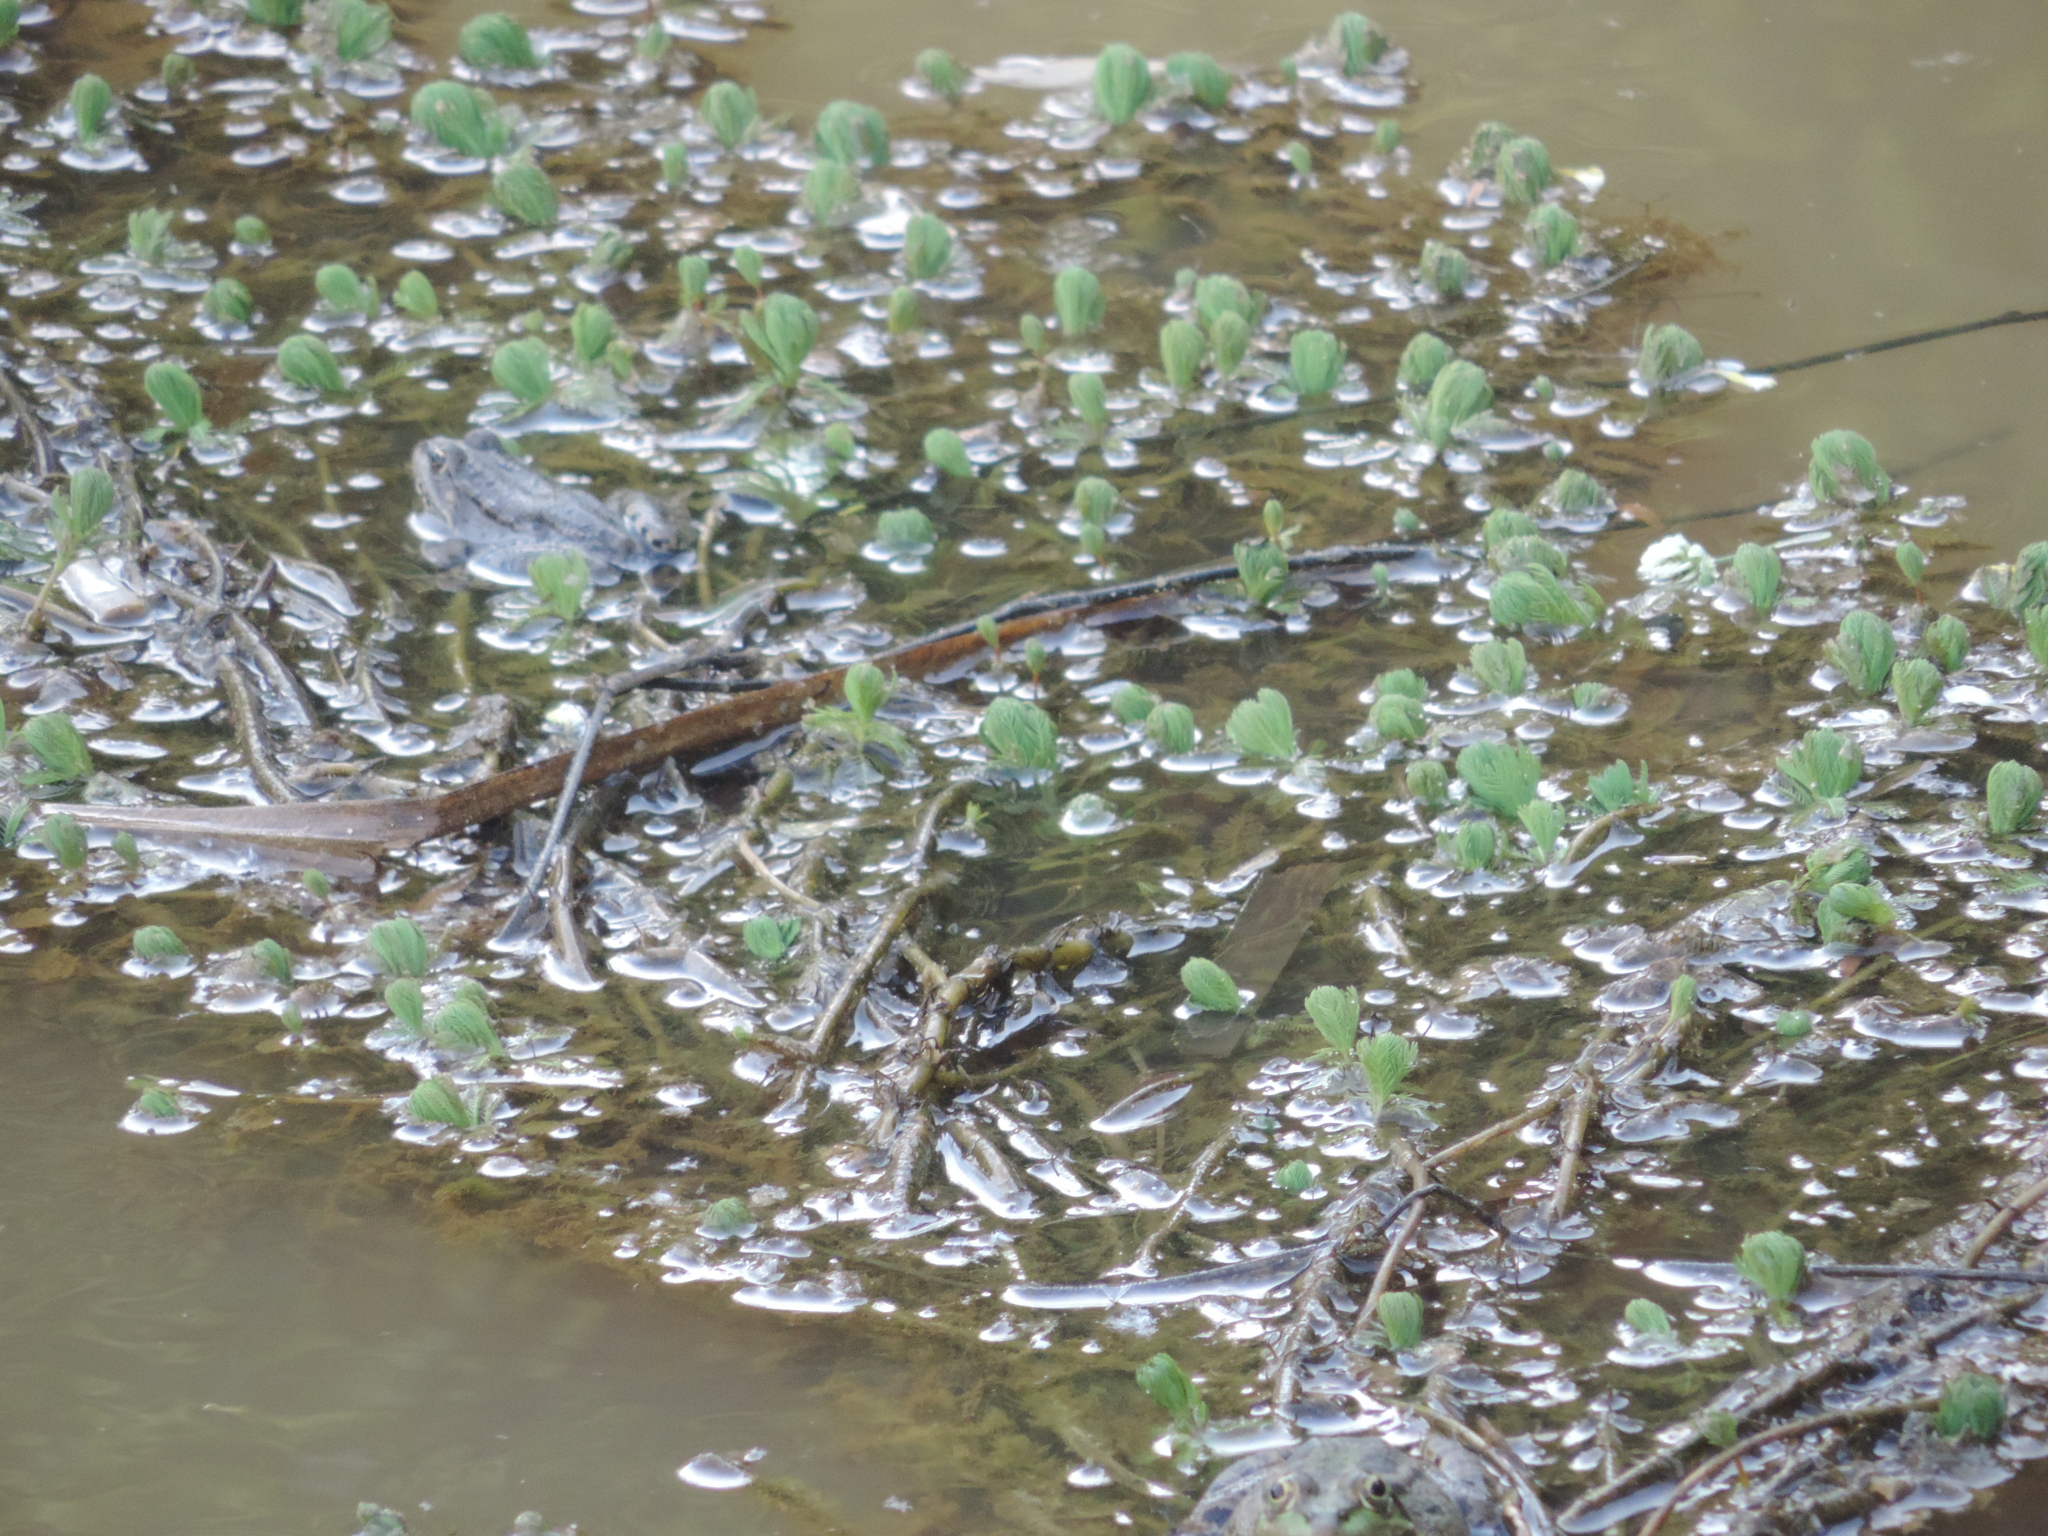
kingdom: Plantae
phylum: Tracheophyta
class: Magnoliopsida
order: Saxifragales
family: Haloragaceae
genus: Myriophyllum
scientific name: Myriophyllum aquaticum
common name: Parrot's feather
